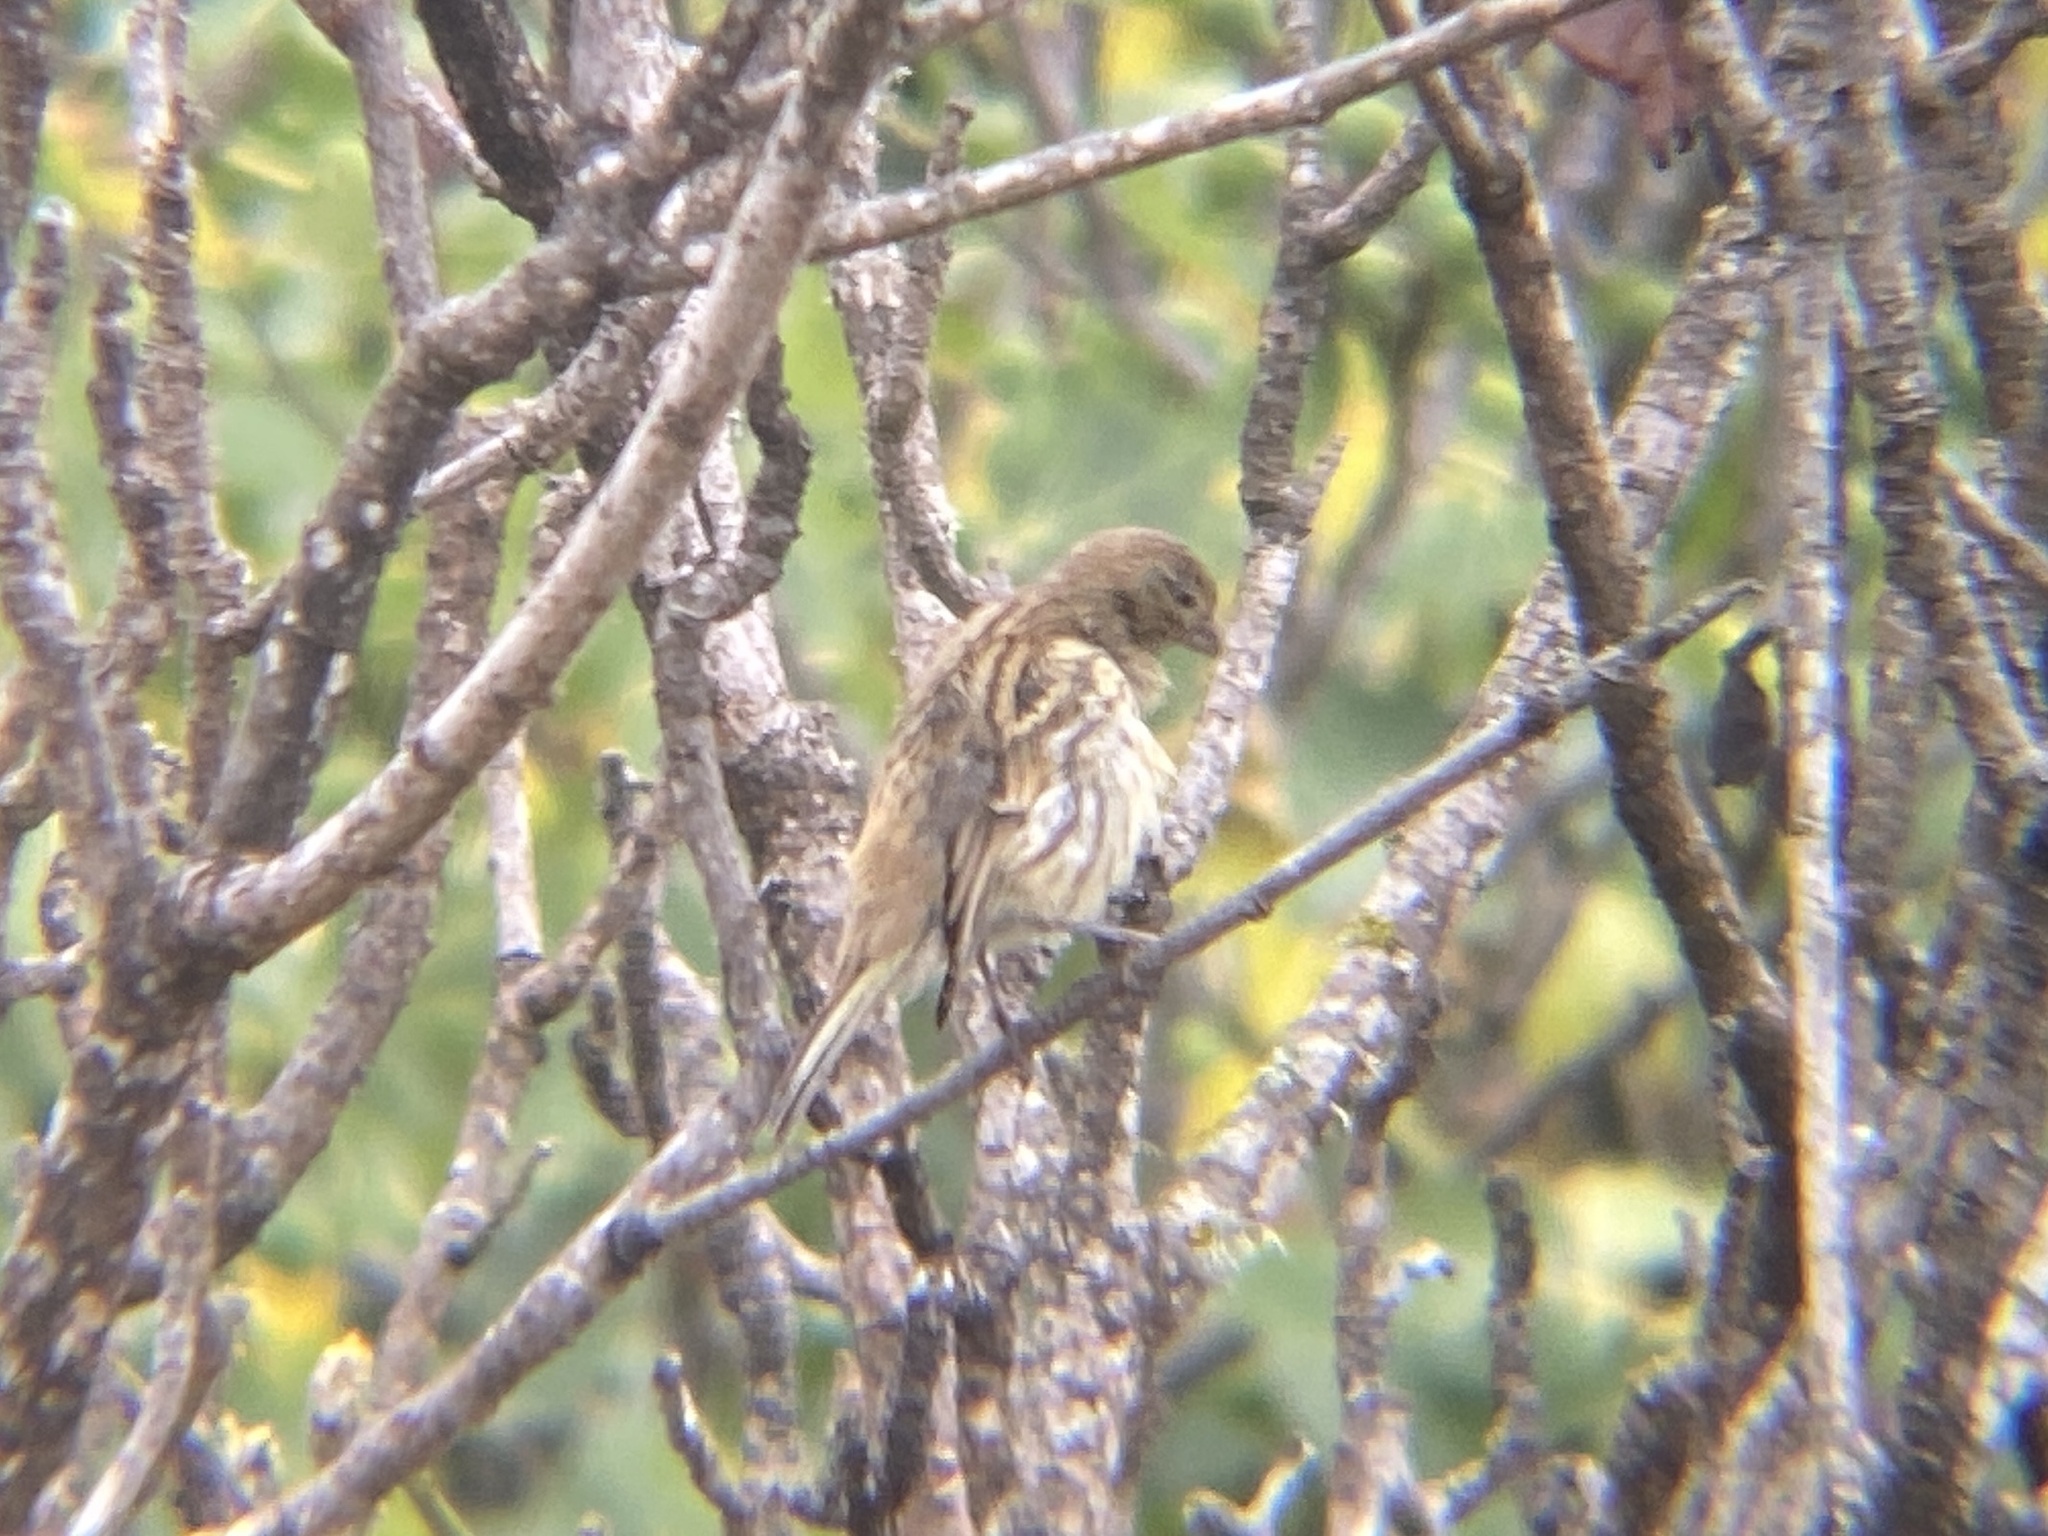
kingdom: Animalia
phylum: Chordata
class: Aves
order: Passeriformes
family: Fringillidae
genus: Serinus
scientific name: Serinus canaria
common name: Atlantic canary
